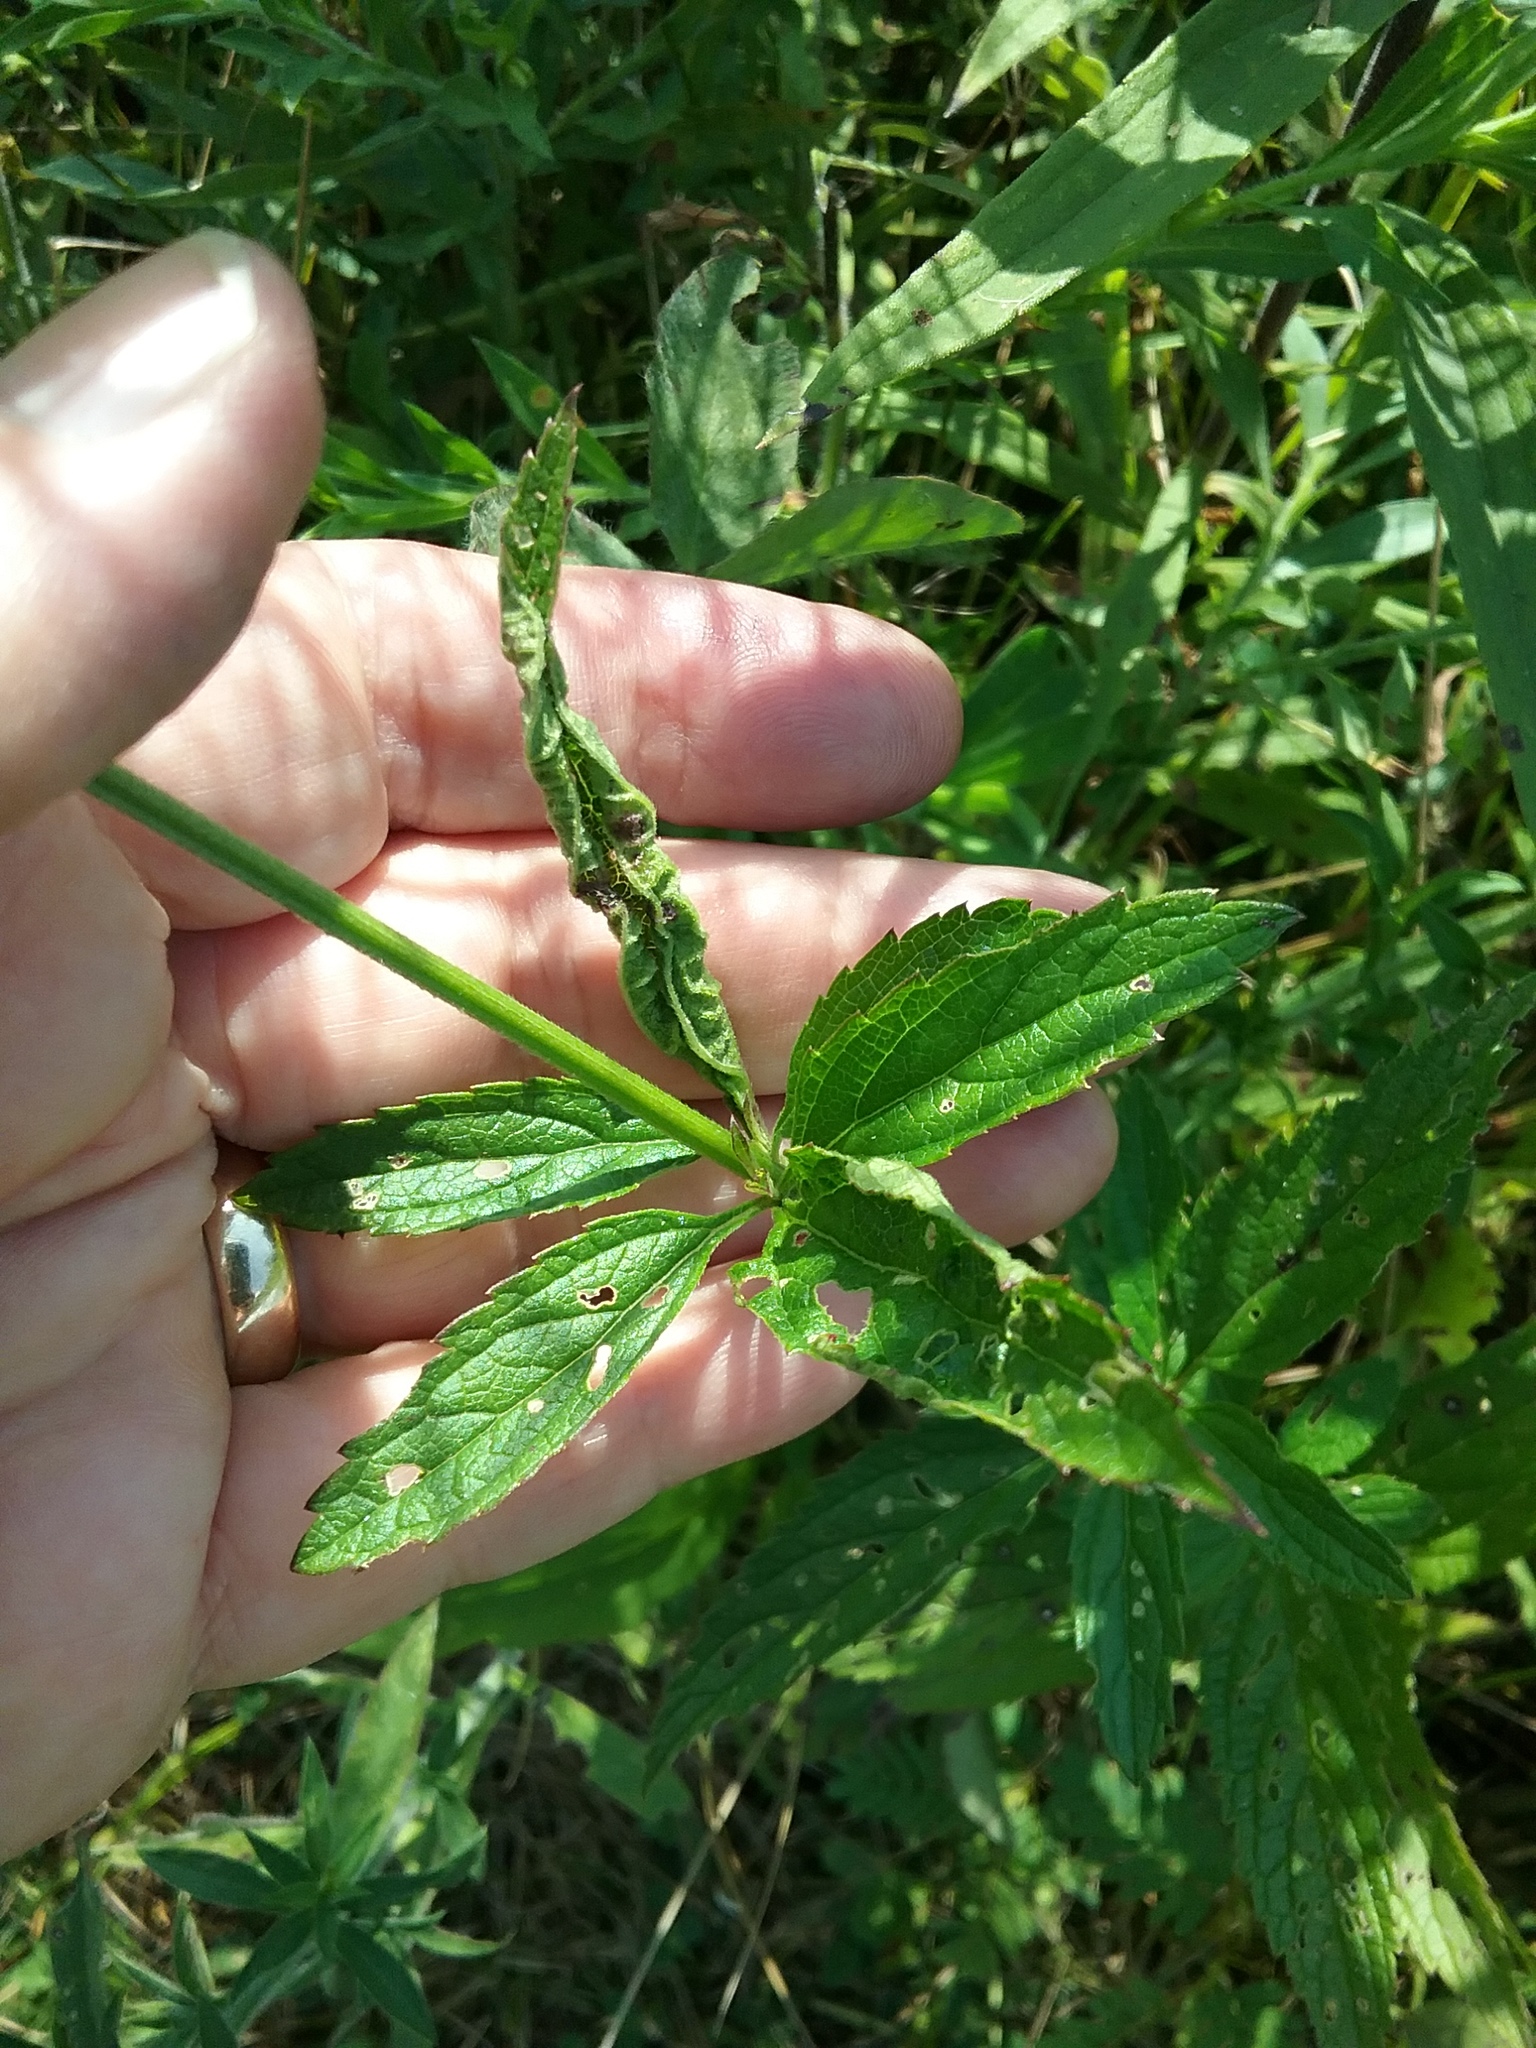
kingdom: Plantae
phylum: Tracheophyta
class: Magnoliopsida
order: Lamiales
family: Verbenaceae
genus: Verbena
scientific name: Verbena hastata
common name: American blue vervain
